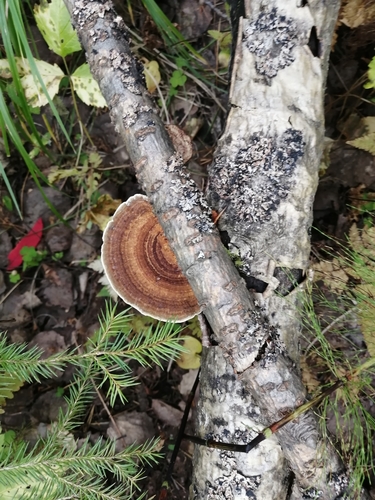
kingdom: Fungi
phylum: Basidiomycota
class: Agaricomycetes
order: Polyporales
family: Polyporaceae
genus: Daedaleopsis
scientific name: Daedaleopsis septentrionalis
